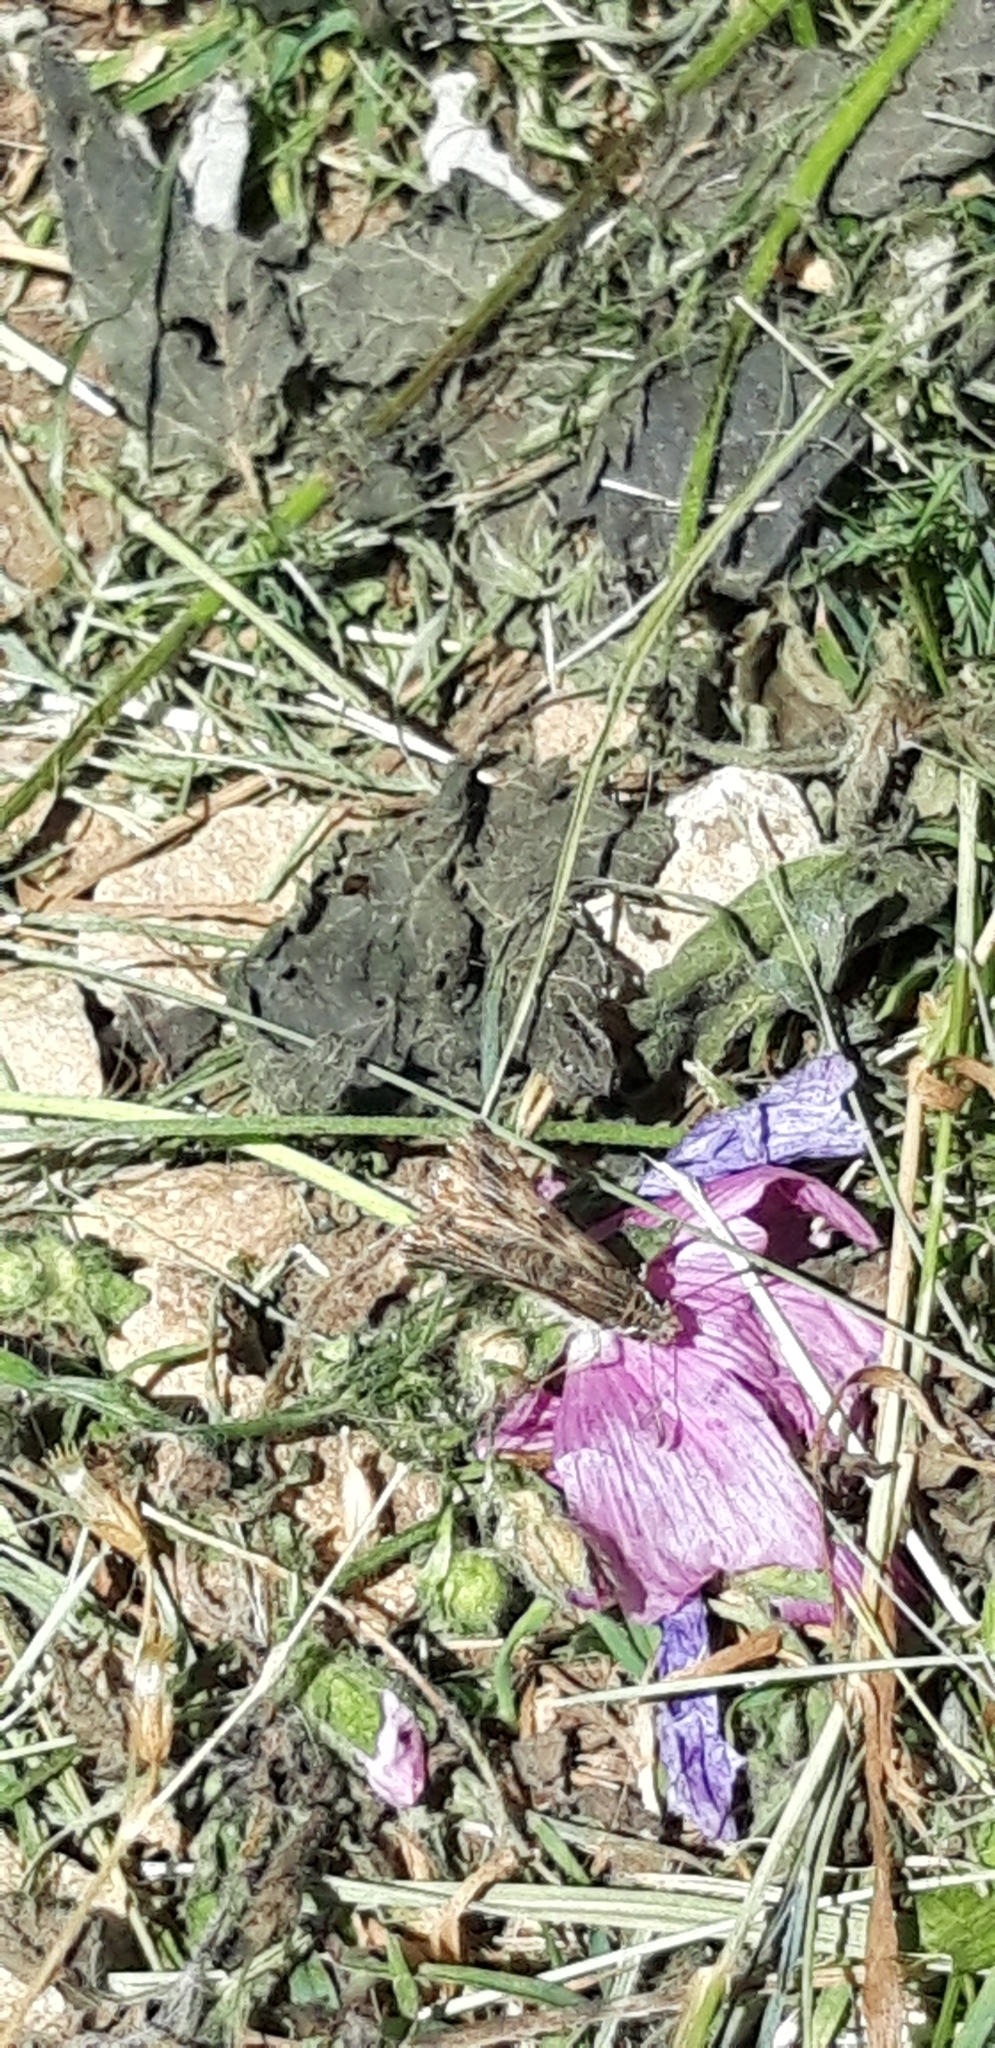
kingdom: Animalia
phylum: Arthropoda
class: Insecta
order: Lepidoptera
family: Hesperiidae
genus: Carcharodus
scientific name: Carcharodus alceae
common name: Mallow skipper
